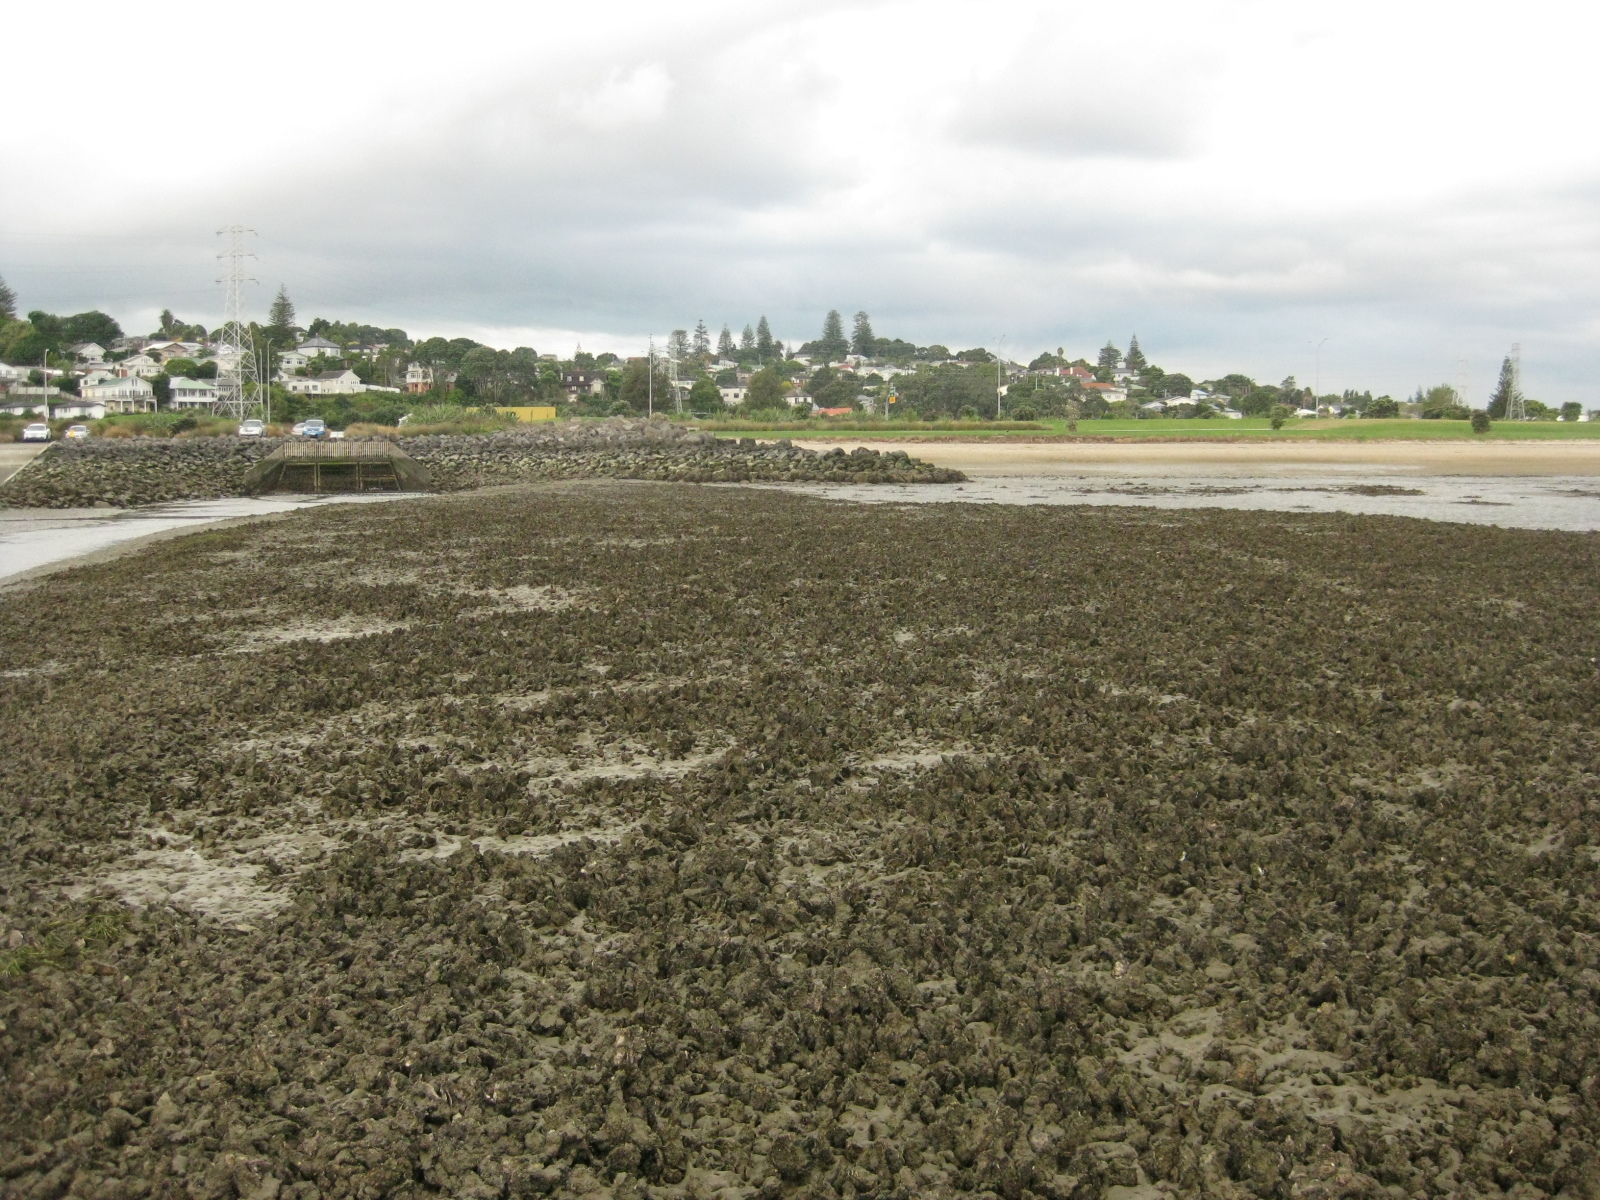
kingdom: Animalia
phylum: Mollusca
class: Bivalvia
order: Ostreida
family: Ostreidae
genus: Magallana
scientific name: Magallana gigas
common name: Pacific oyster
